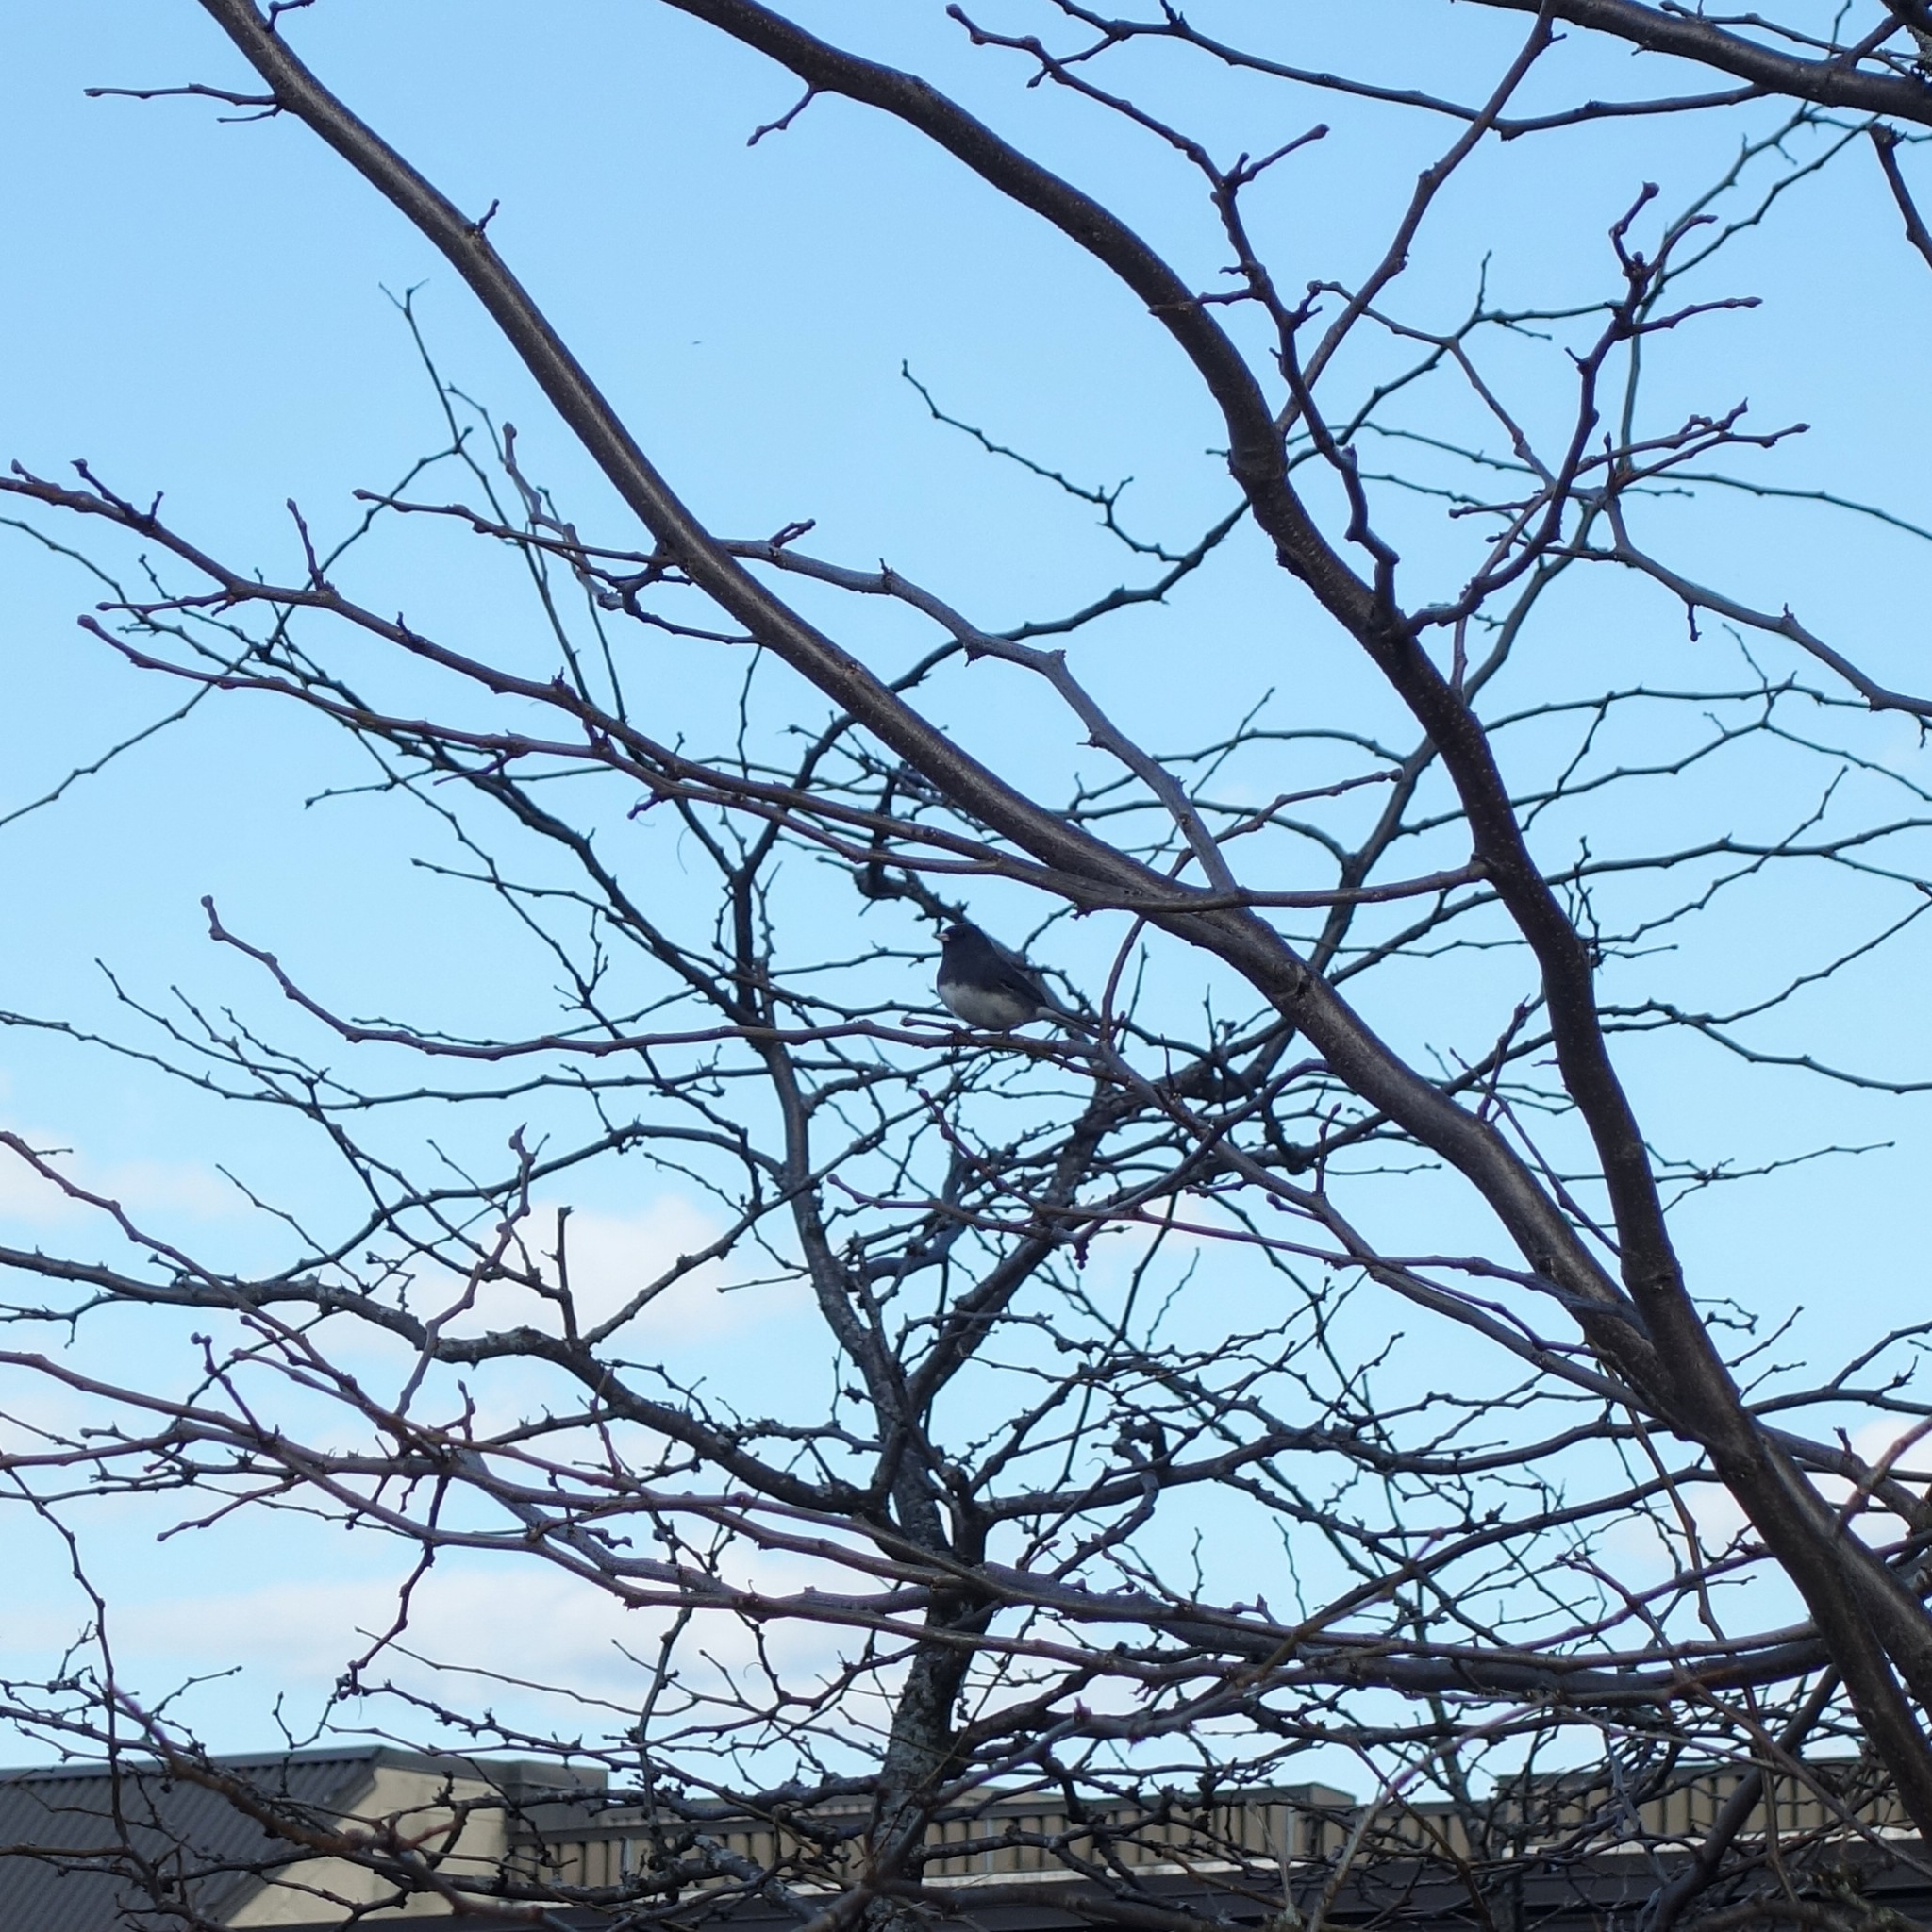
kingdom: Animalia
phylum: Chordata
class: Aves
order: Passeriformes
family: Passerellidae
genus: Junco
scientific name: Junco hyemalis
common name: Dark-eyed junco
